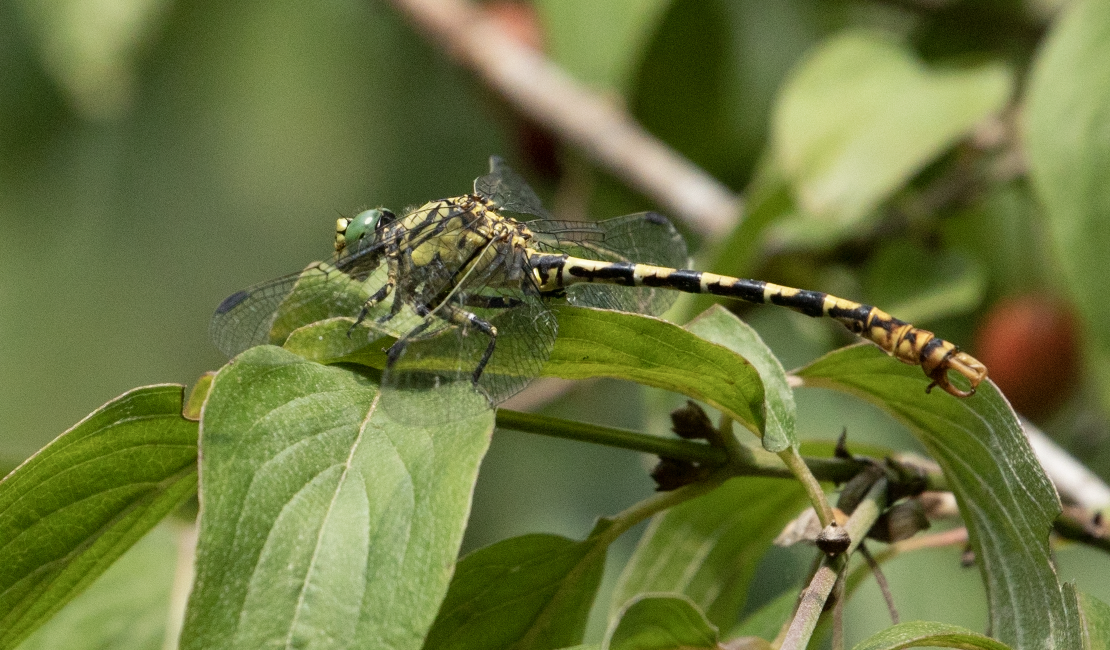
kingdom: Animalia
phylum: Arthropoda
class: Insecta
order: Odonata
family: Gomphidae
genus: Onychogomphus
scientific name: Onychogomphus forcipatus
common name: Small pincertail
